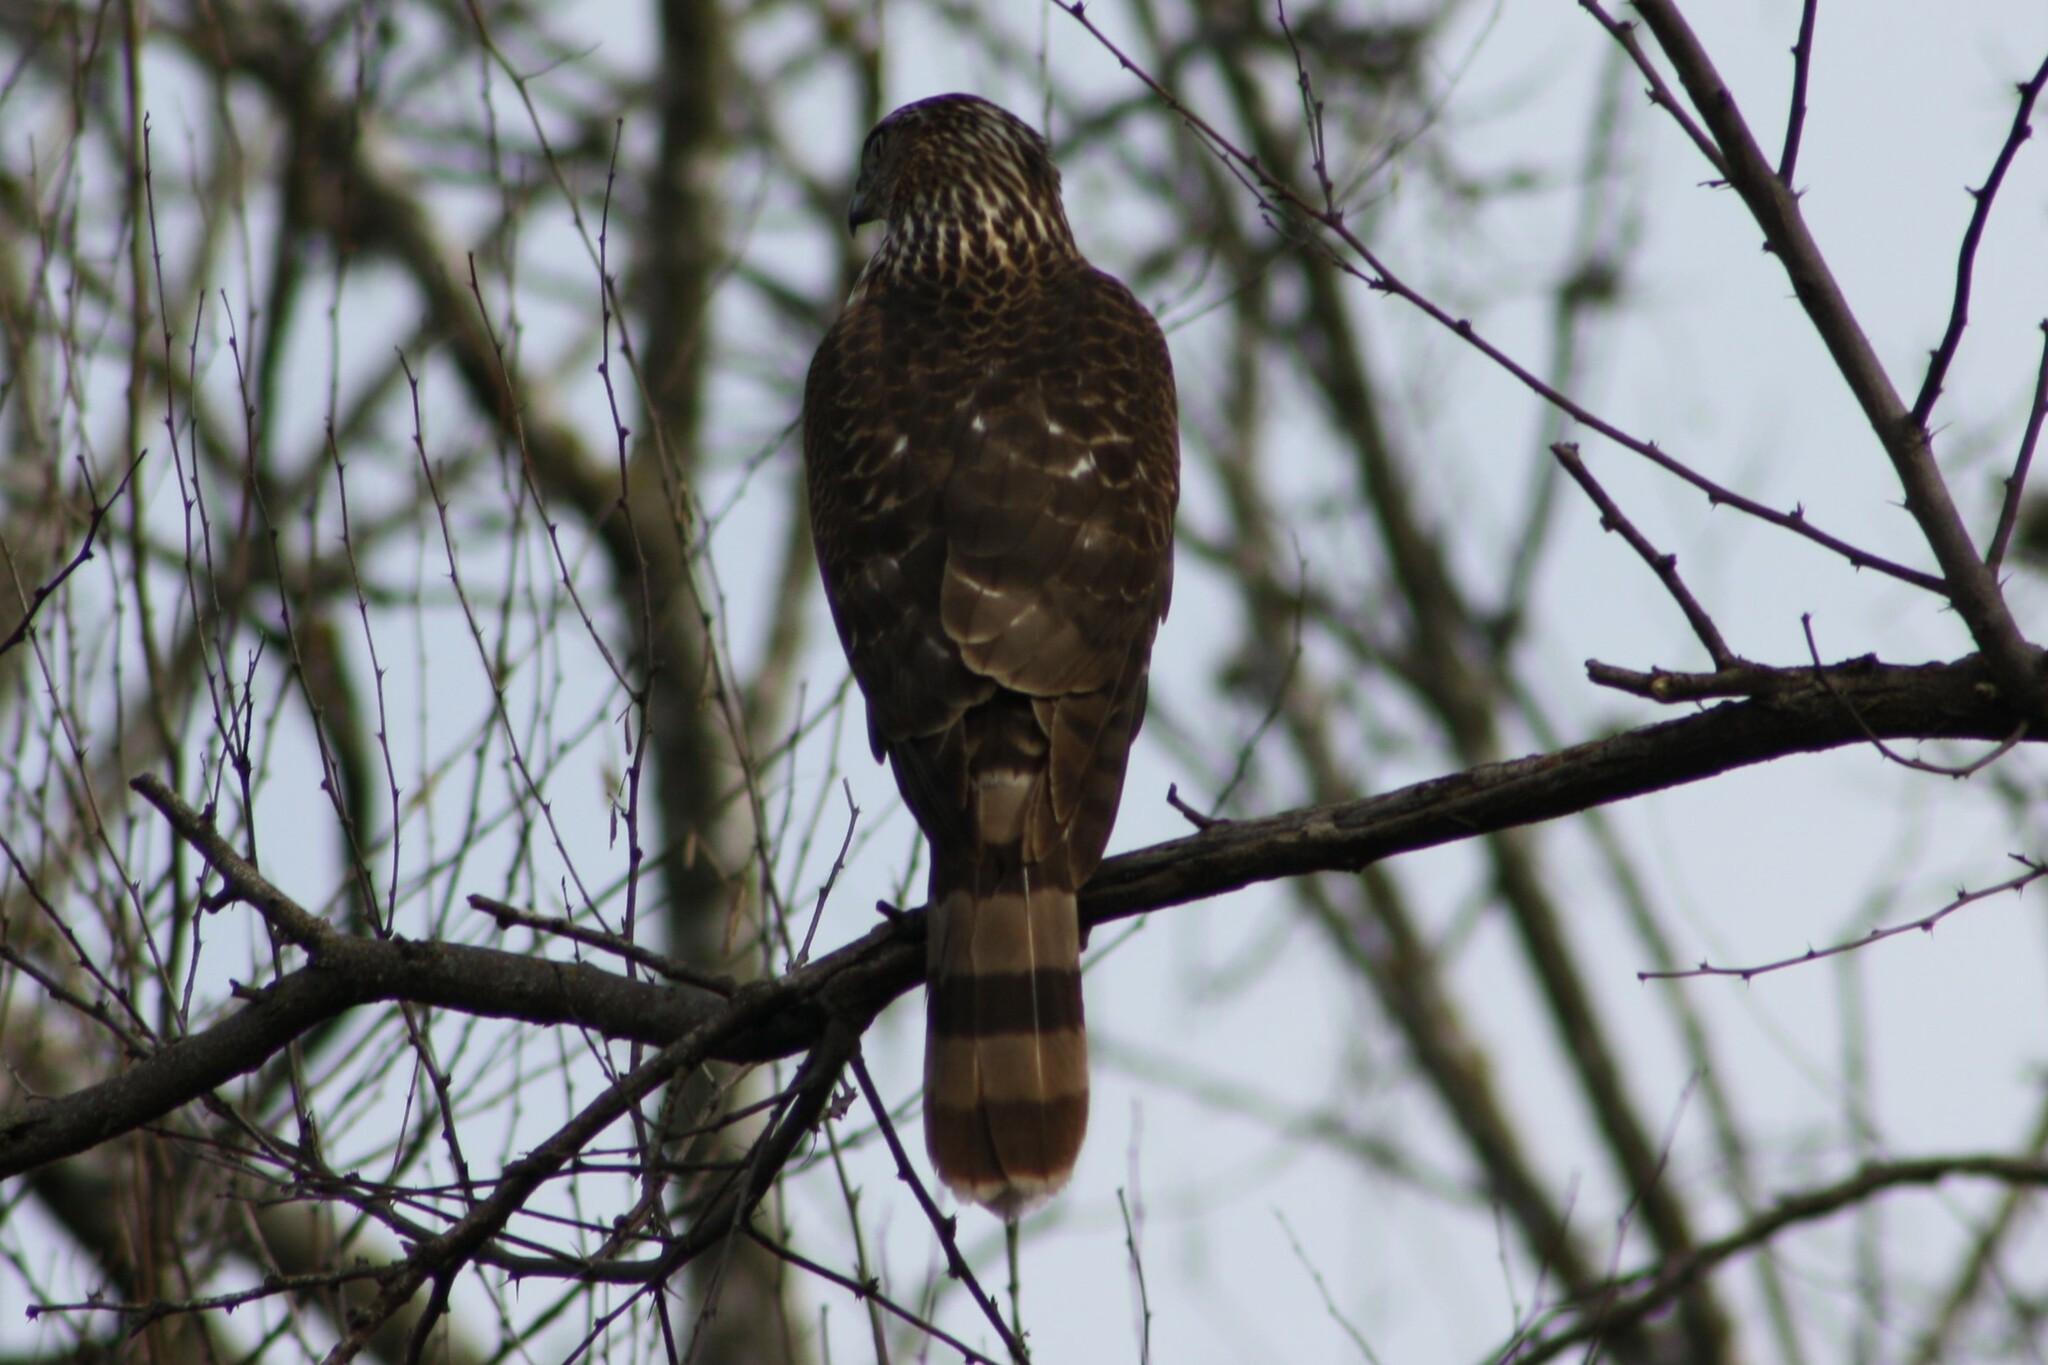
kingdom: Animalia
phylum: Chordata
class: Aves
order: Accipitriformes
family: Accipitridae
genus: Accipiter
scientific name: Accipiter cooperii
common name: Cooper's hawk
